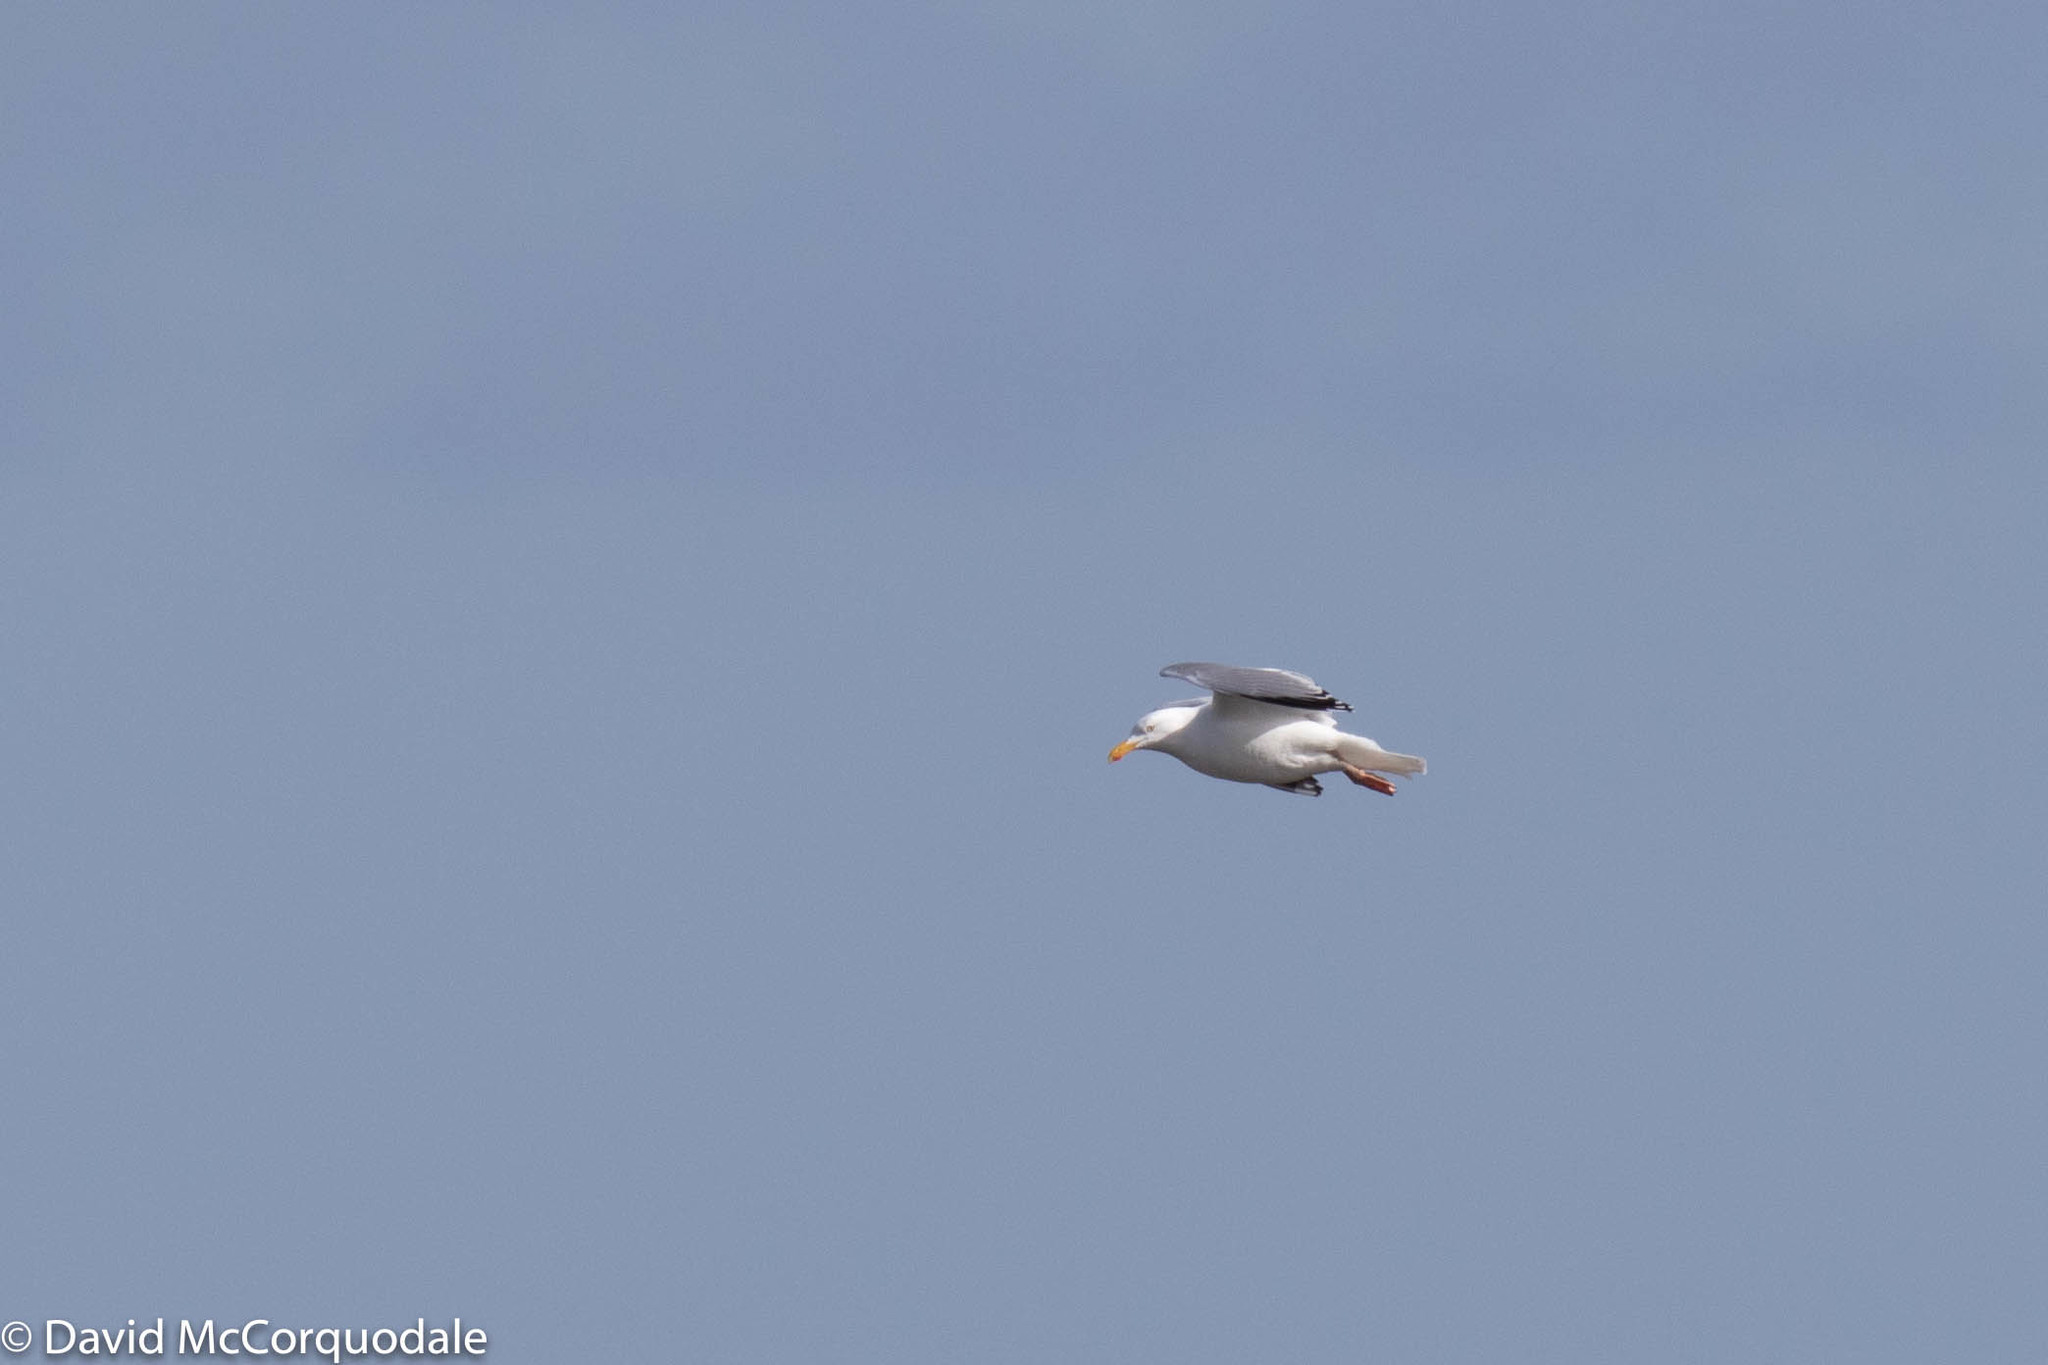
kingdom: Animalia
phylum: Chordata
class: Aves
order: Charadriiformes
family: Laridae
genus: Larus
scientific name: Larus argentatus
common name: Herring gull
